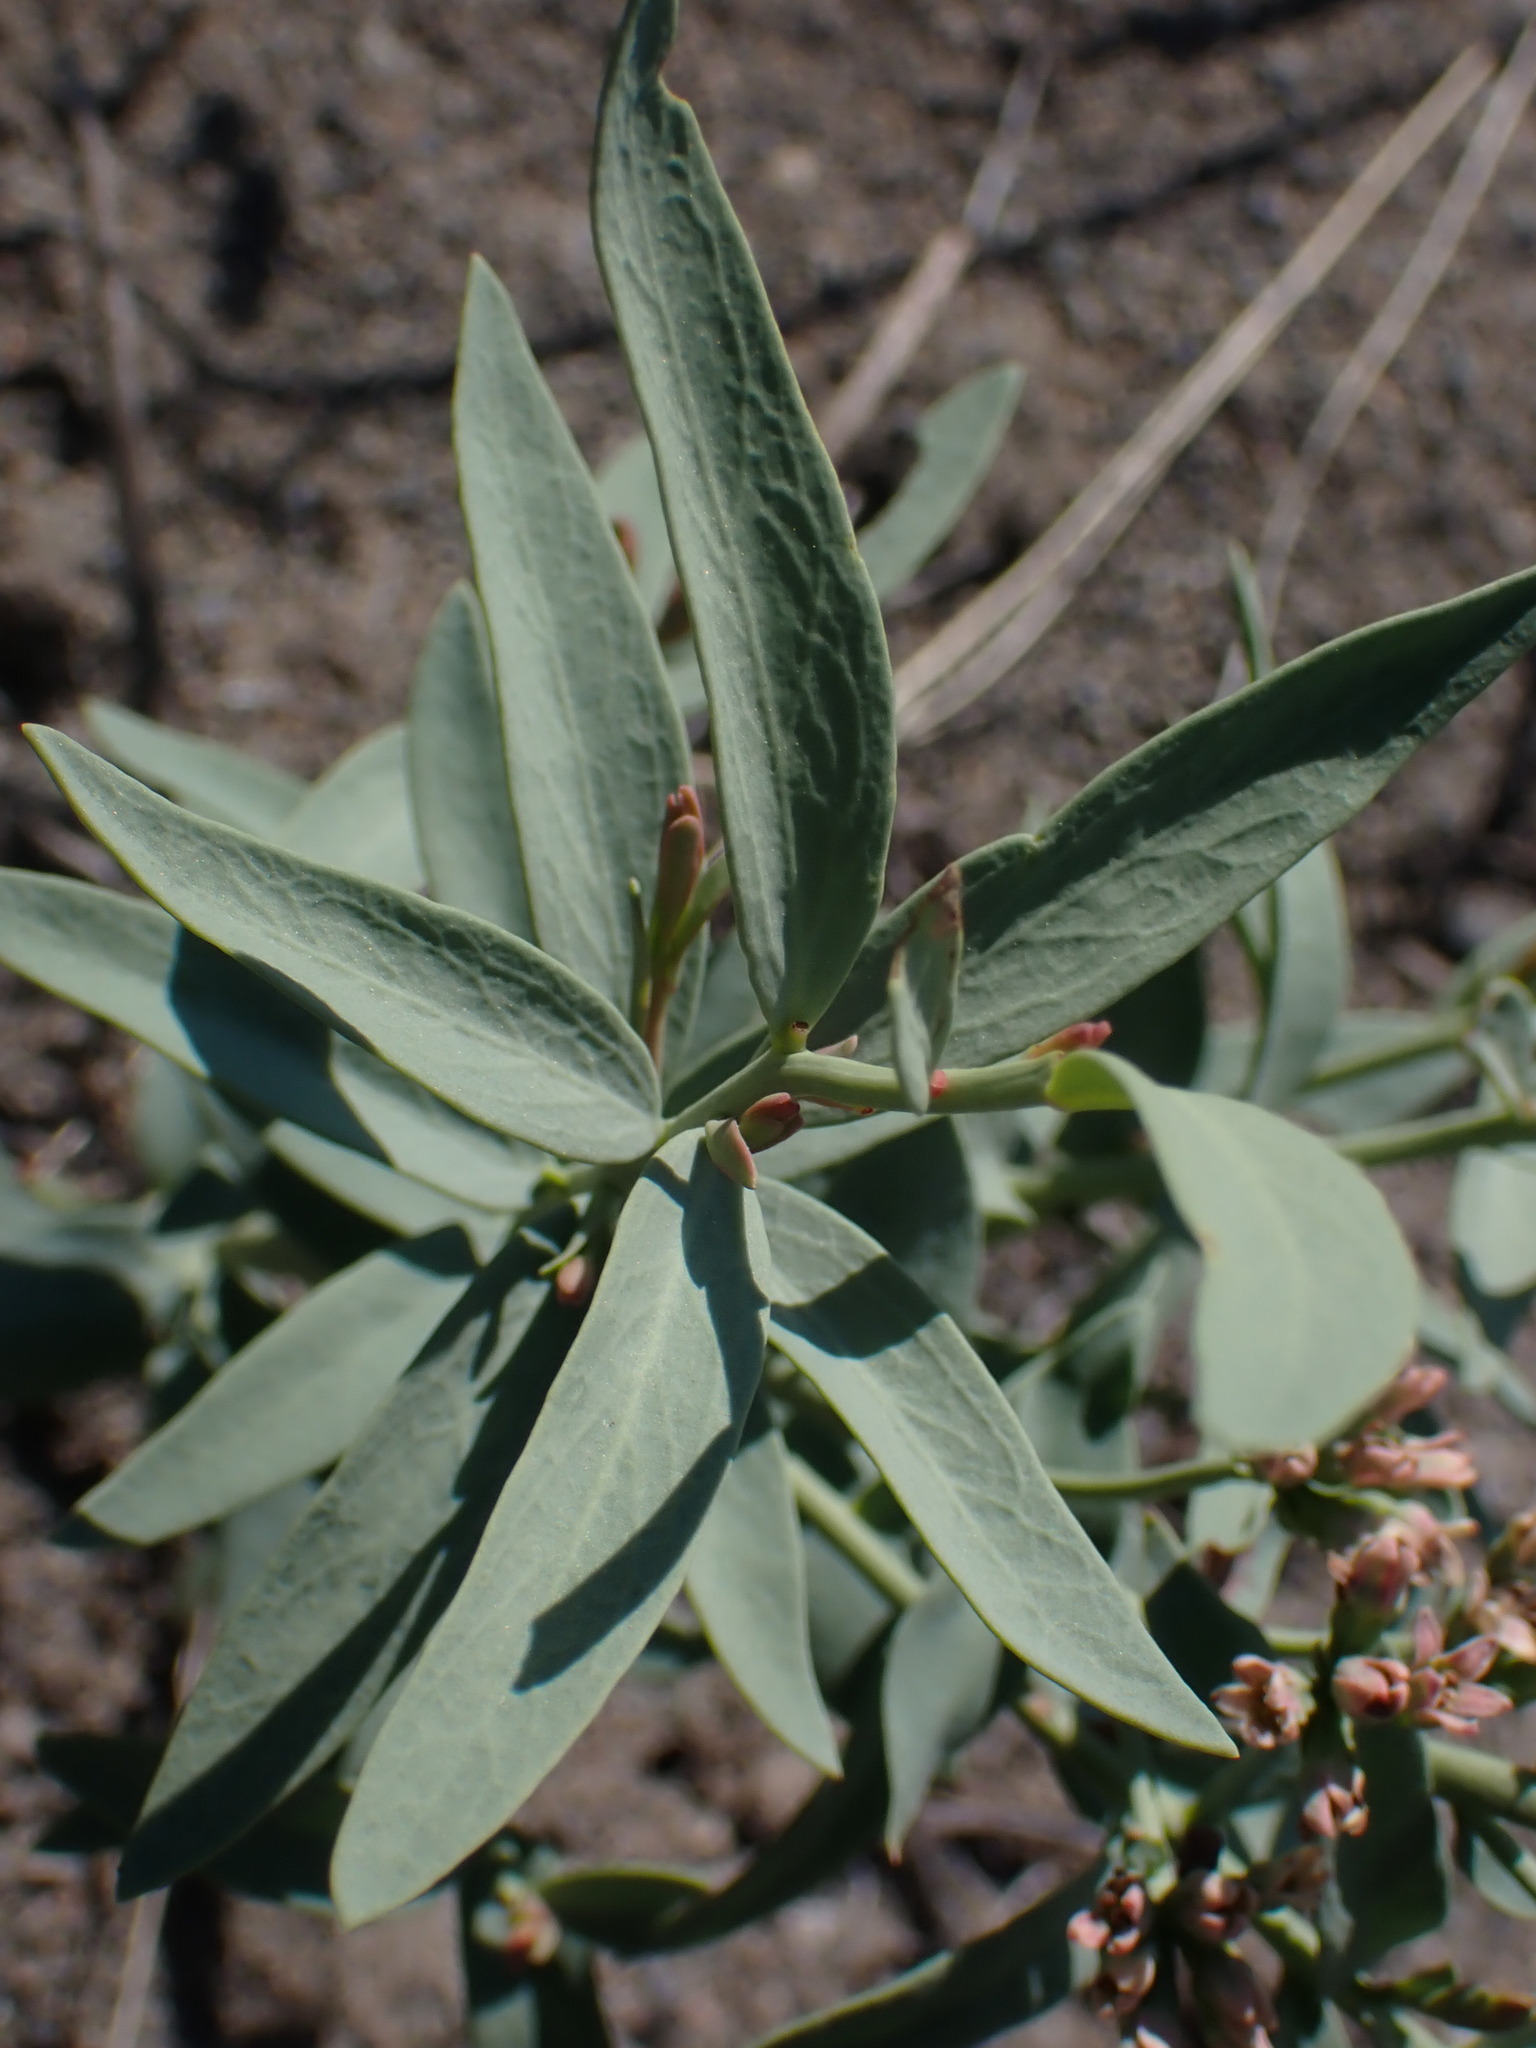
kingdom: Plantae
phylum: Tracheophyta
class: Magnoliopsida
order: Santalales
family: Comandraceae
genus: Comandra
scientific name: Comandra umbellata
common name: Bastard toadflax
